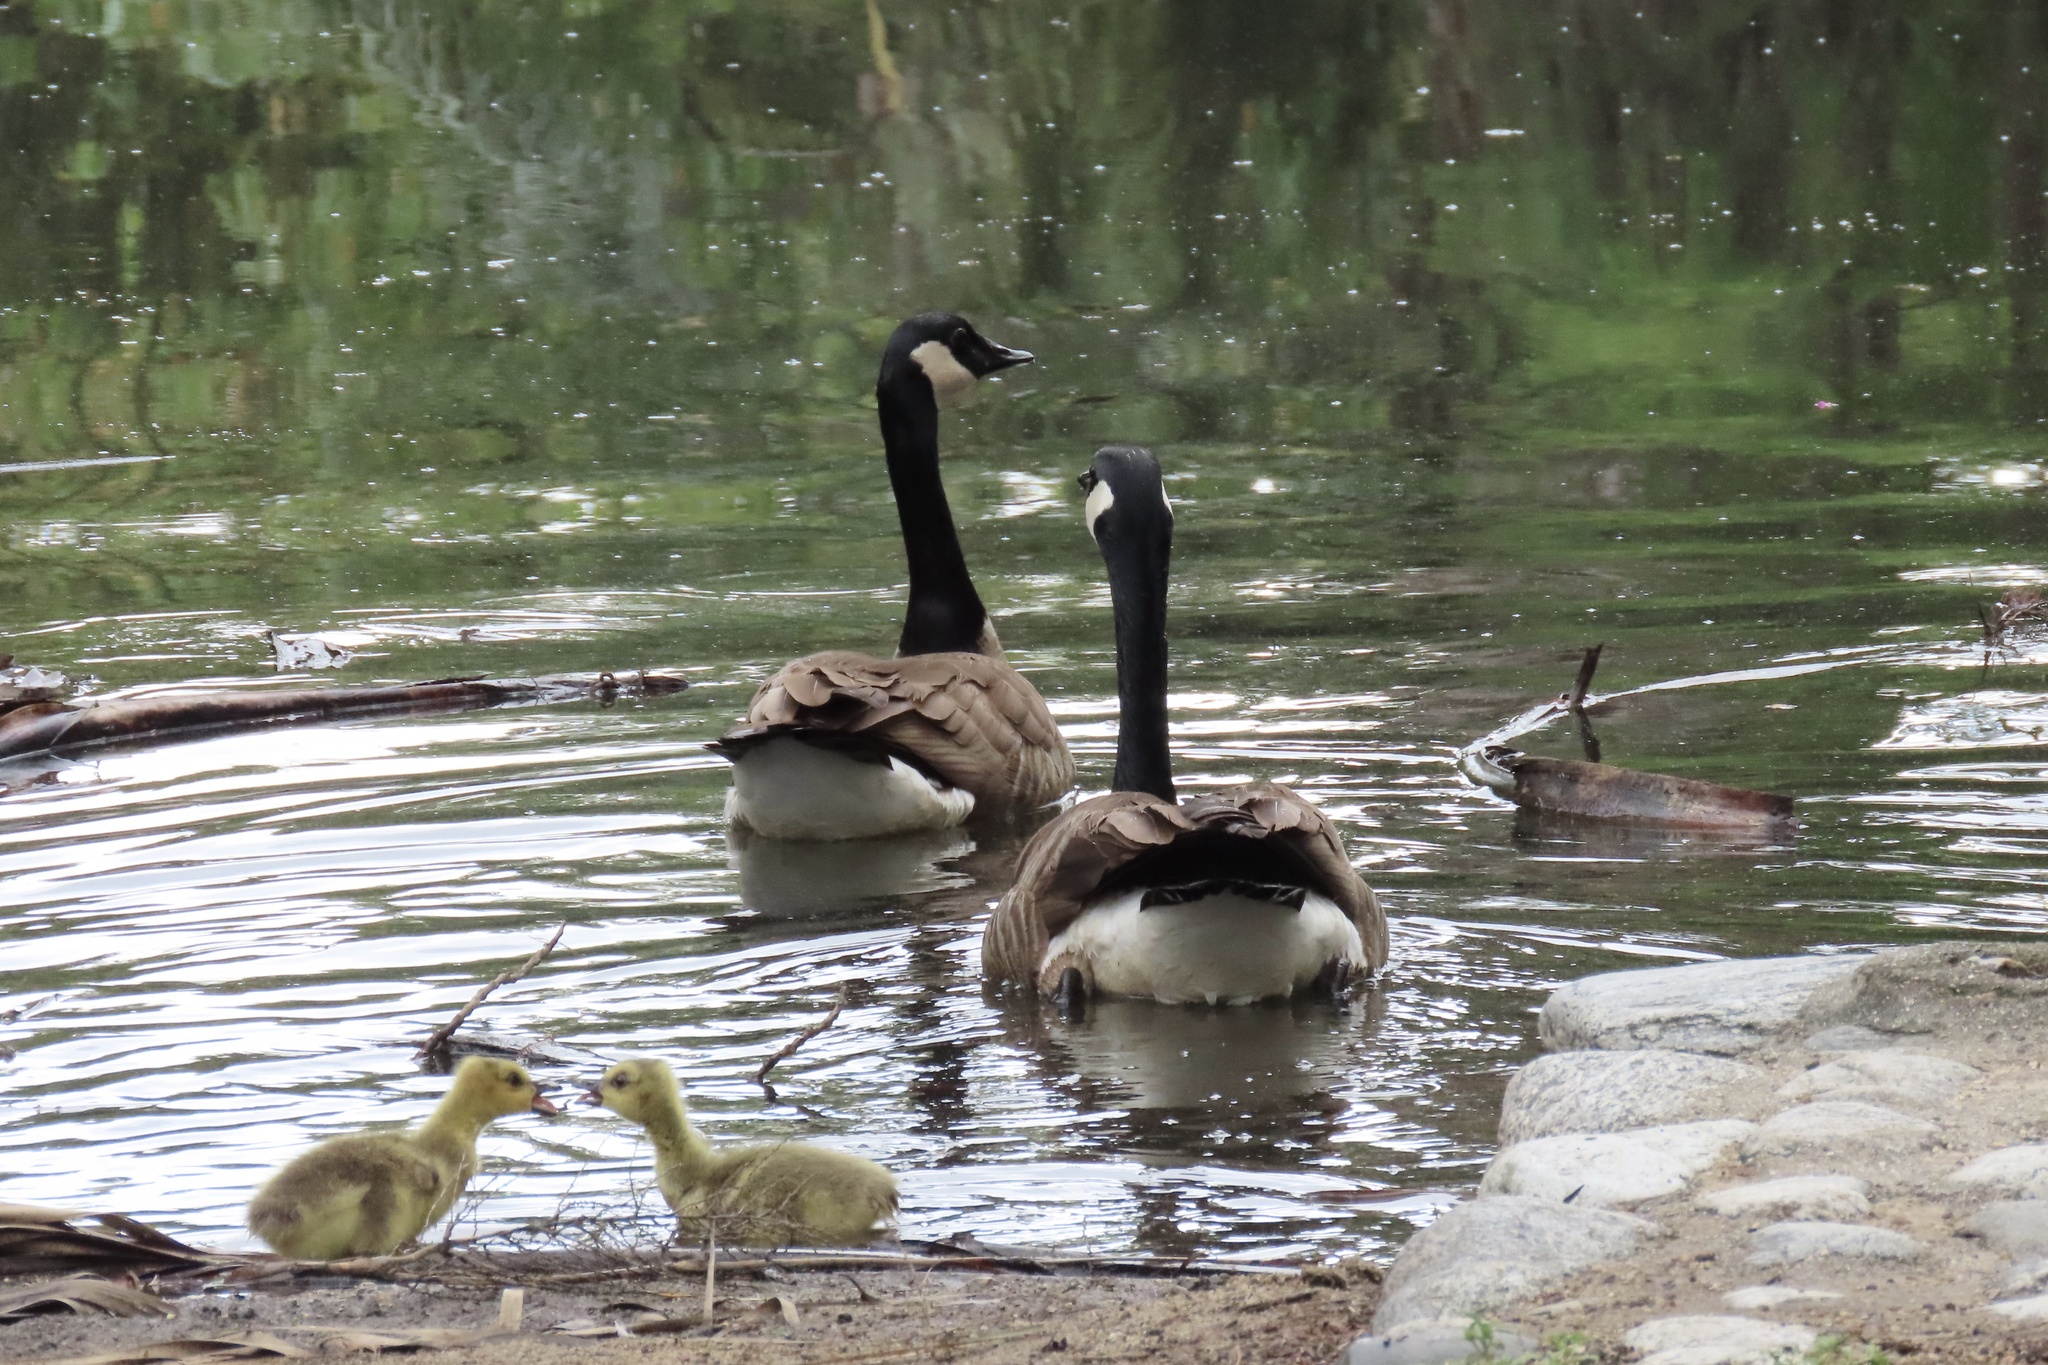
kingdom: Animalia
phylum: Chordata
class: Aves
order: Anseriformes
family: Anatidae
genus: Branta
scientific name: Branta canadensis
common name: Canada goose
